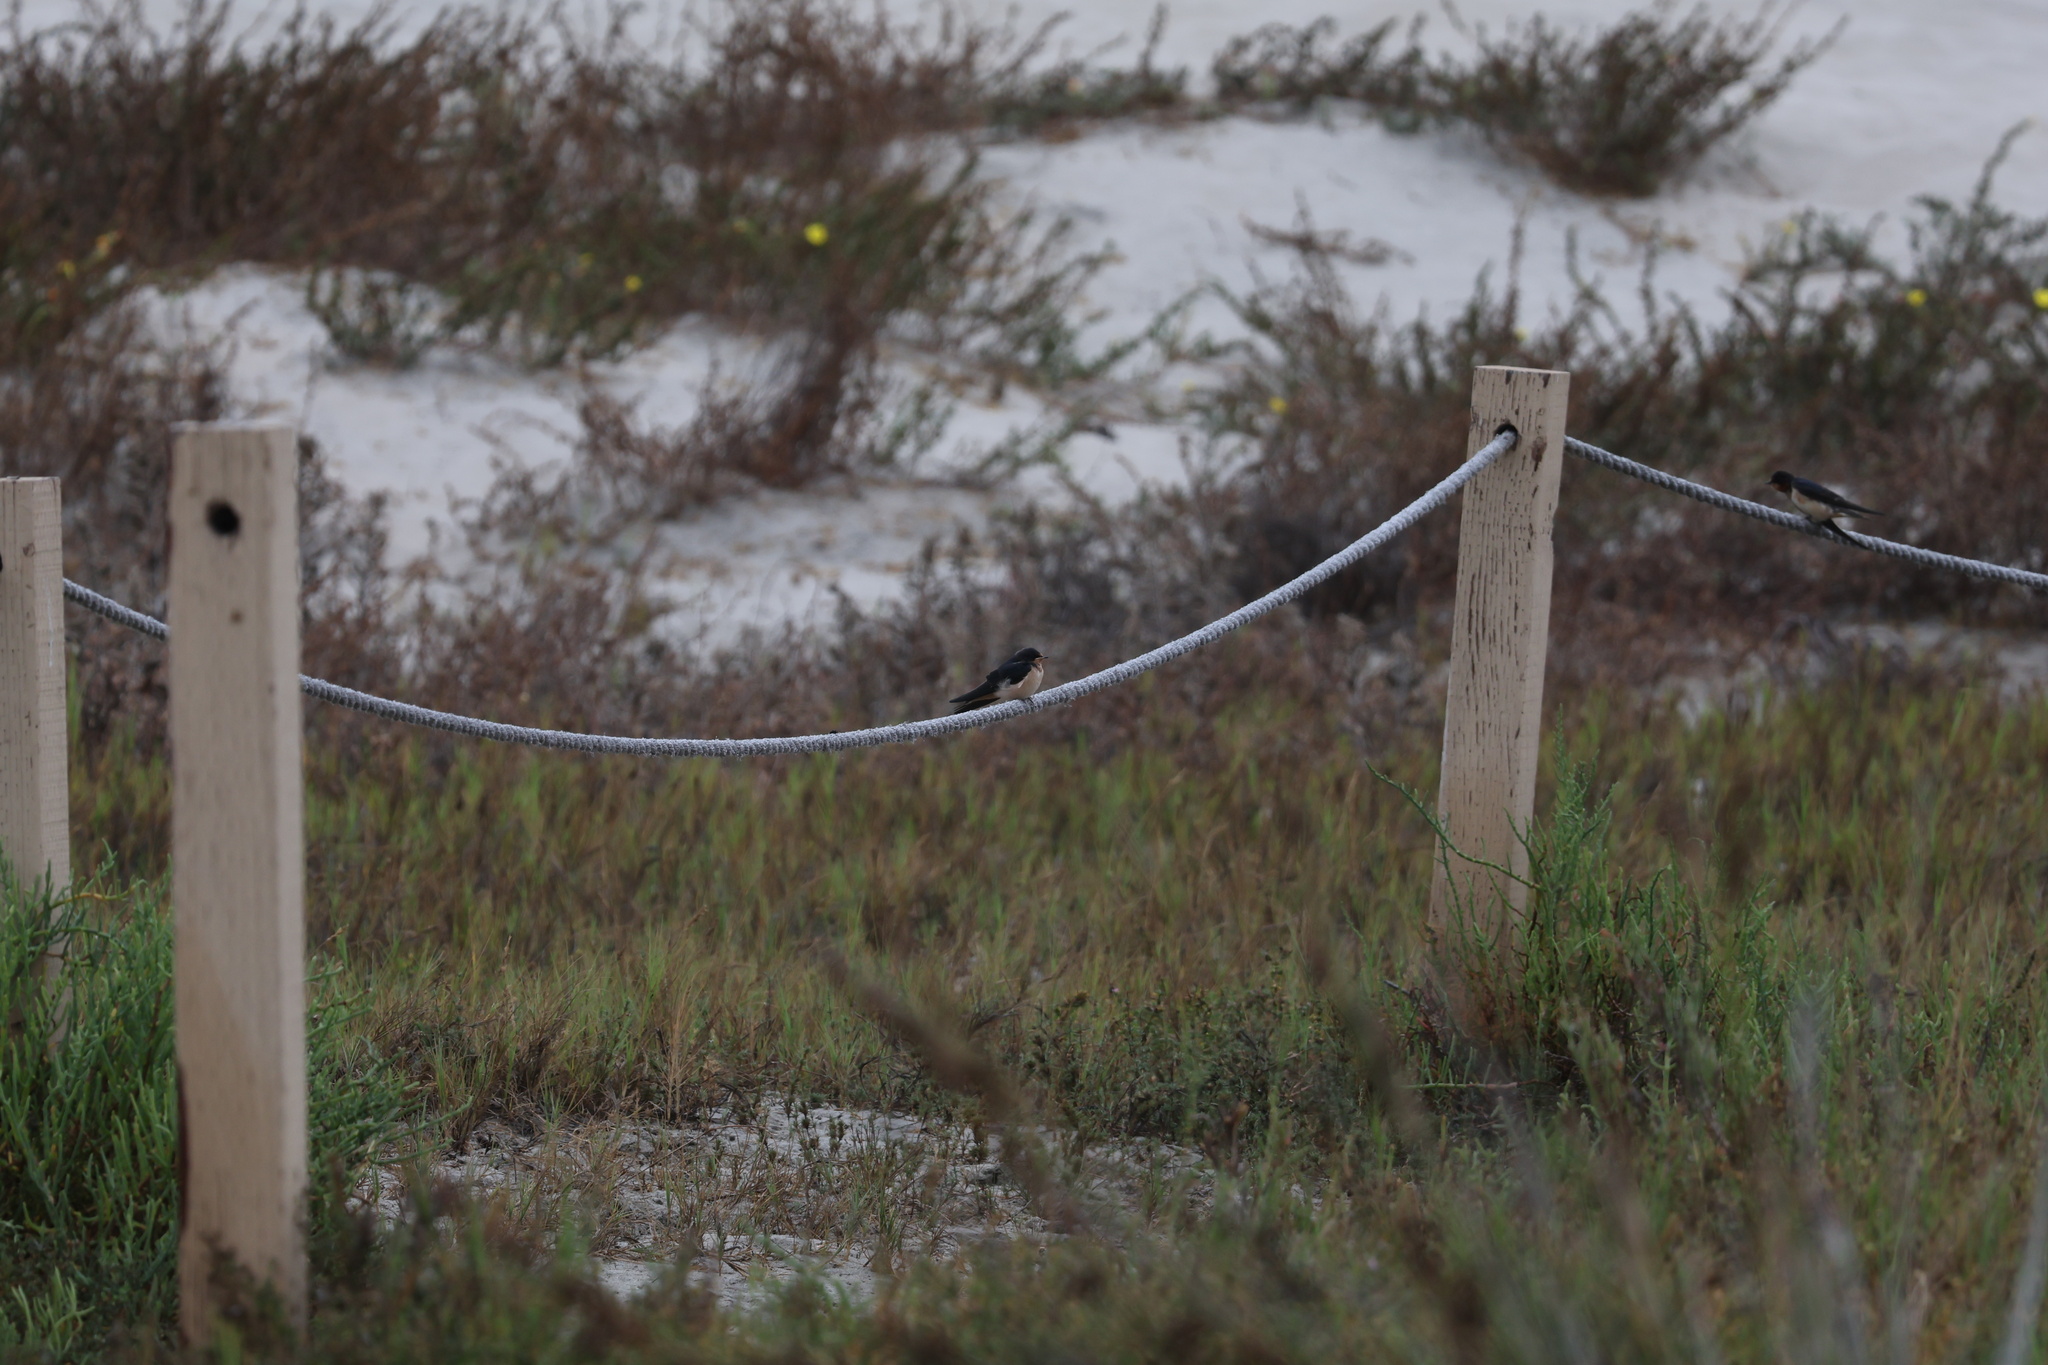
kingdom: Animalia
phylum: Chordata
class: Aves
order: Passeriformes
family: Hirundinidae
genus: Hirundo
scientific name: Hirundo rustica
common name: Barn swallow
